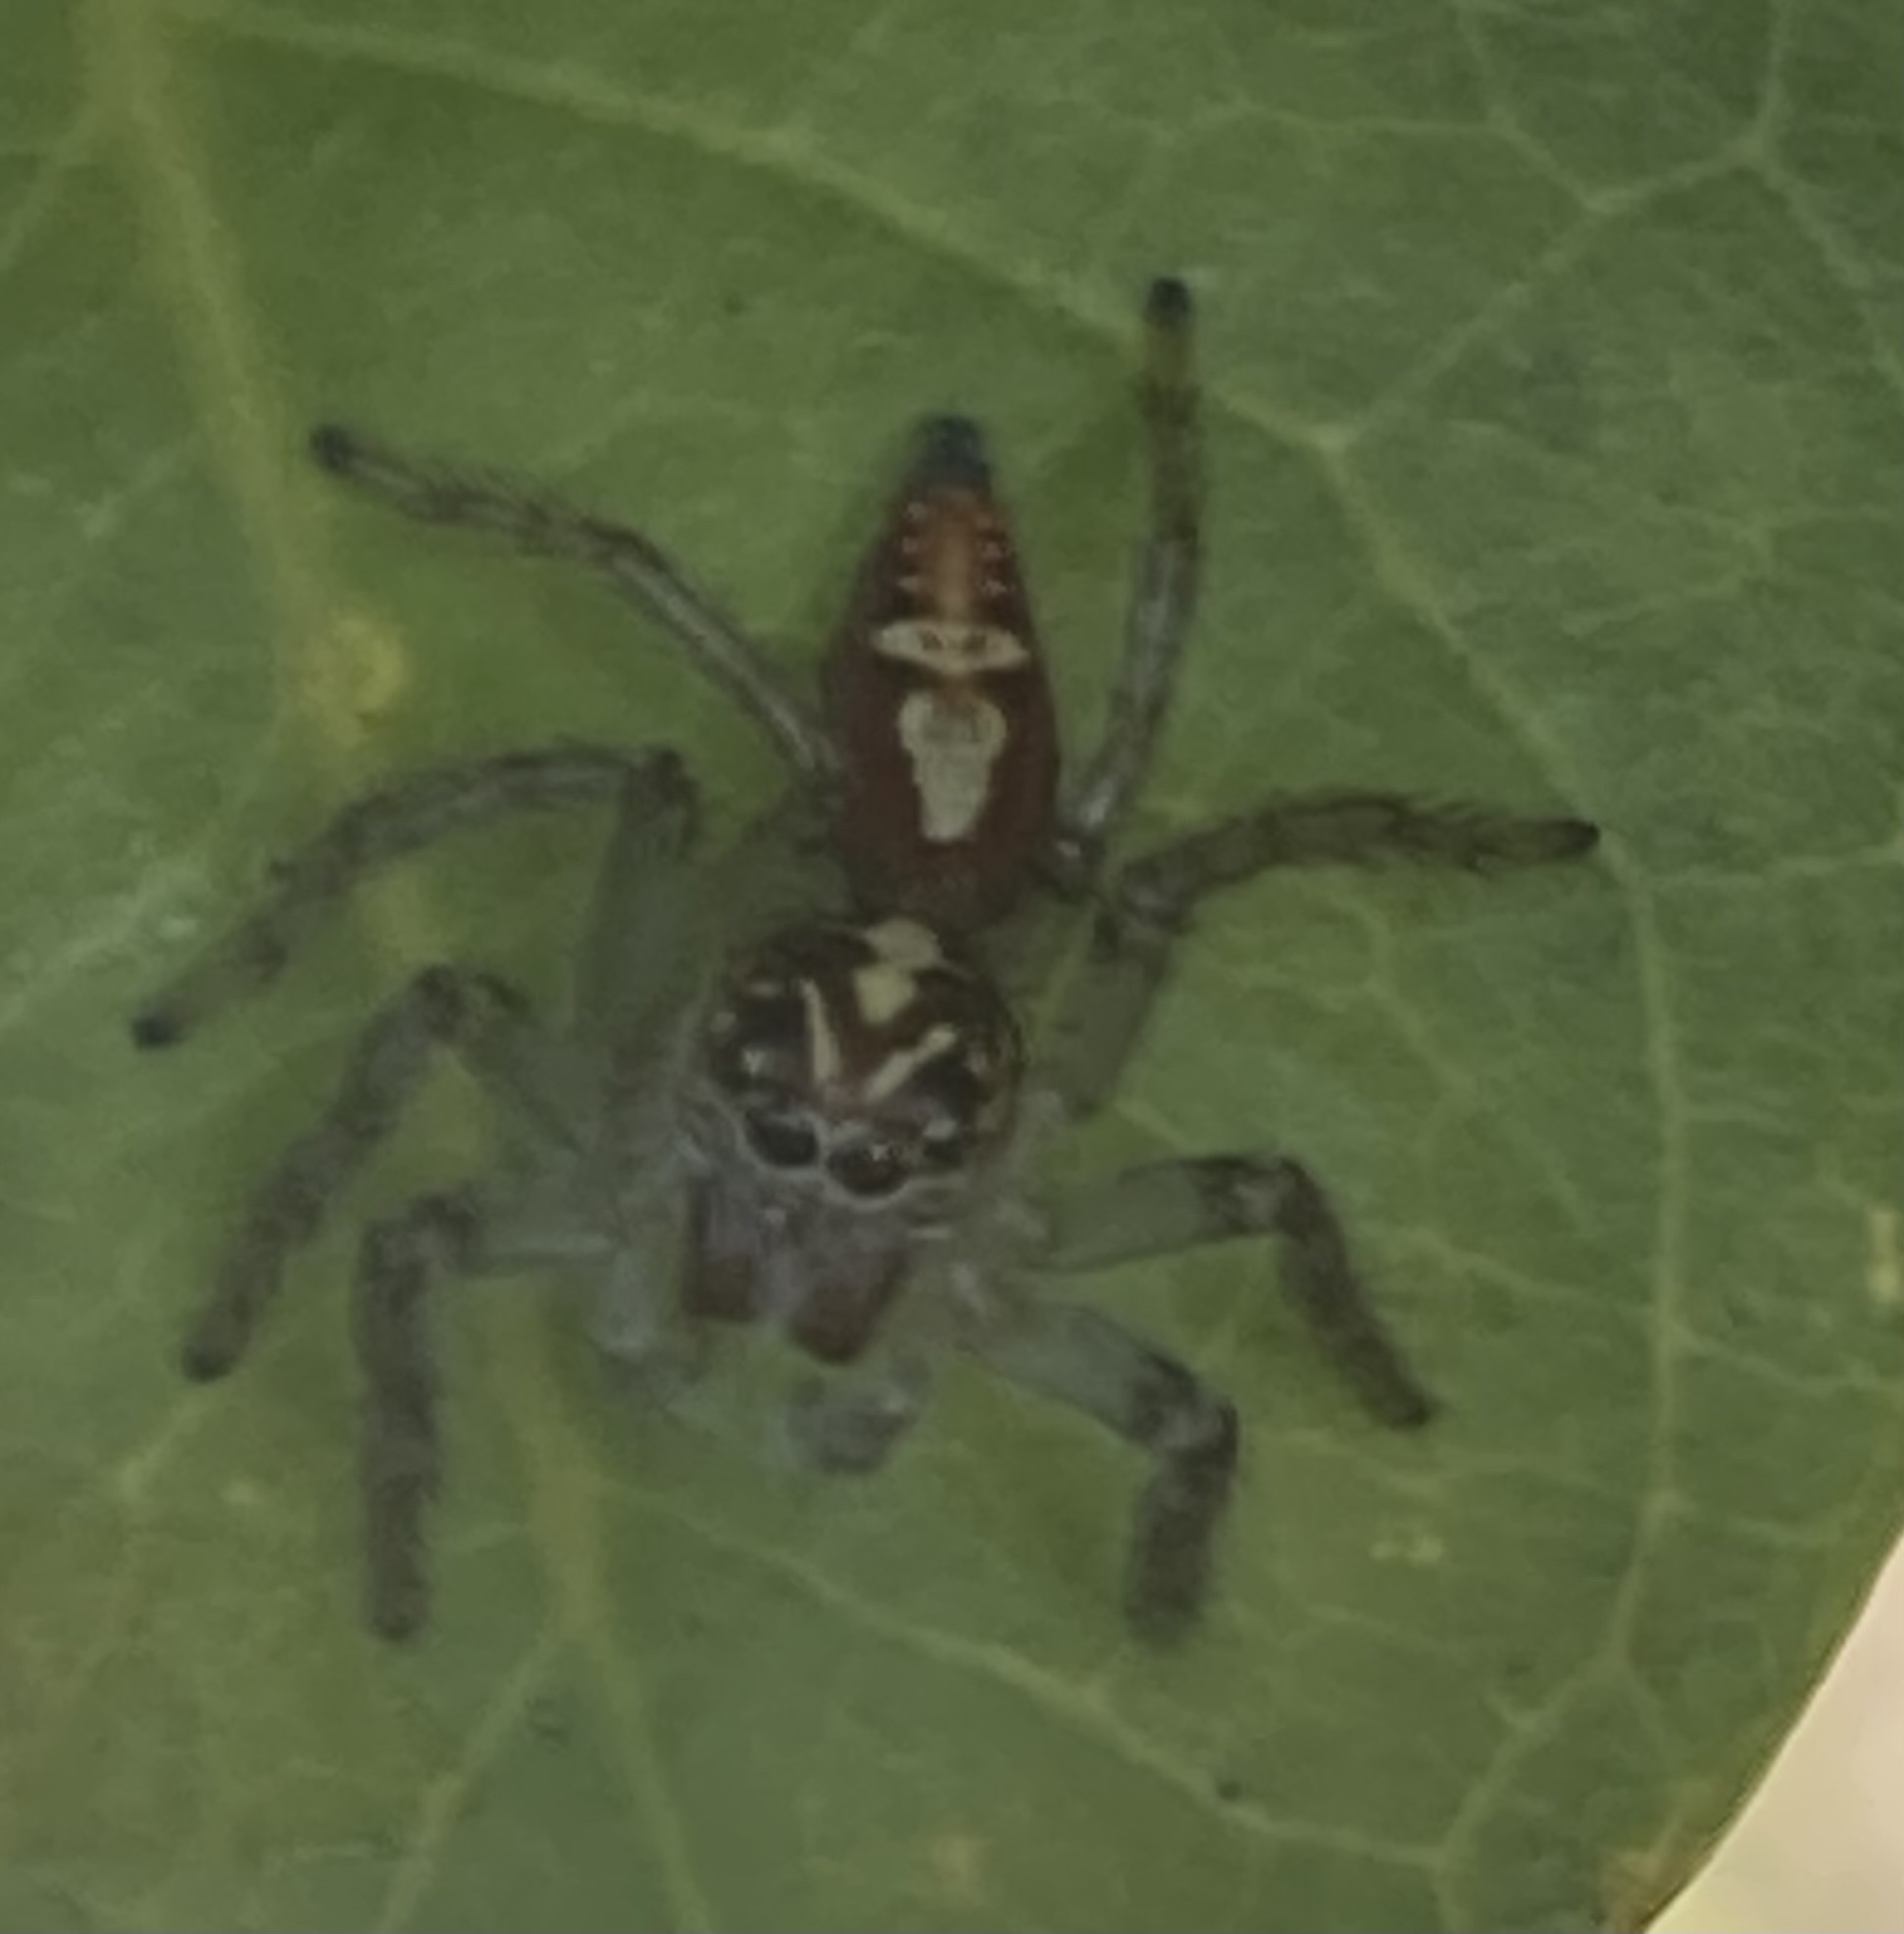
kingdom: Animalia
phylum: Arthropoda
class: Arachnida
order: Araneae
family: Salticidae
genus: Frigga
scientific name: Frigga quintensis
